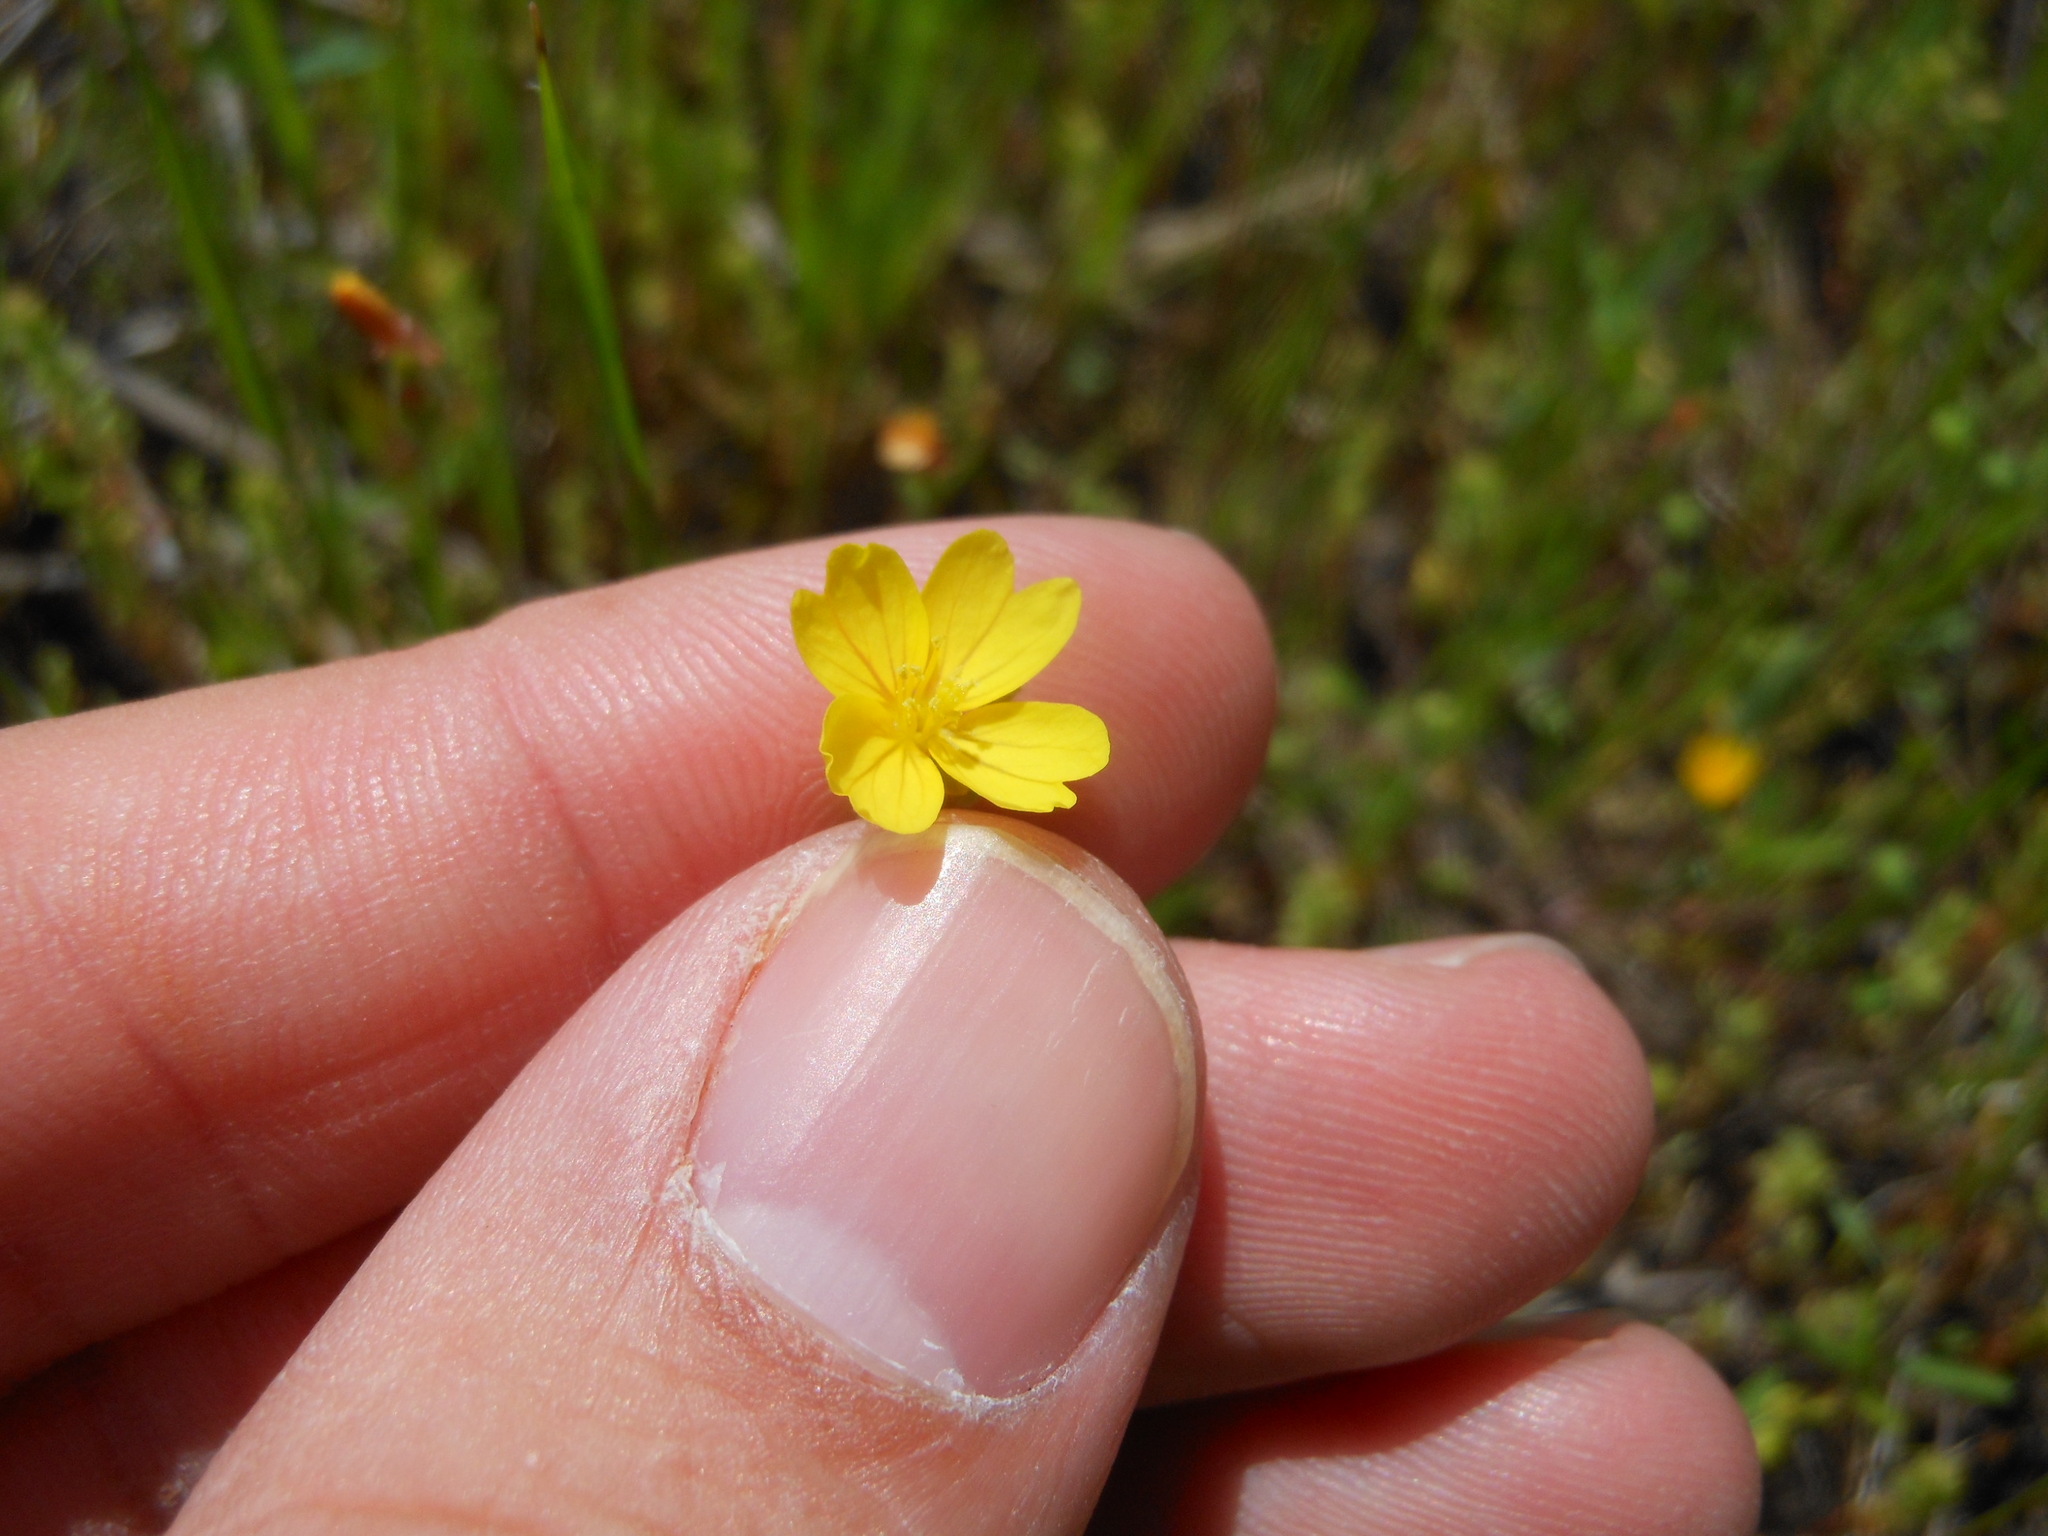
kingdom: Plantae
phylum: Tracheophyta
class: Magnoliopsida
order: Myrtales
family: Onagraceae
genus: Oenothera
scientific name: Oenothera linifolia
